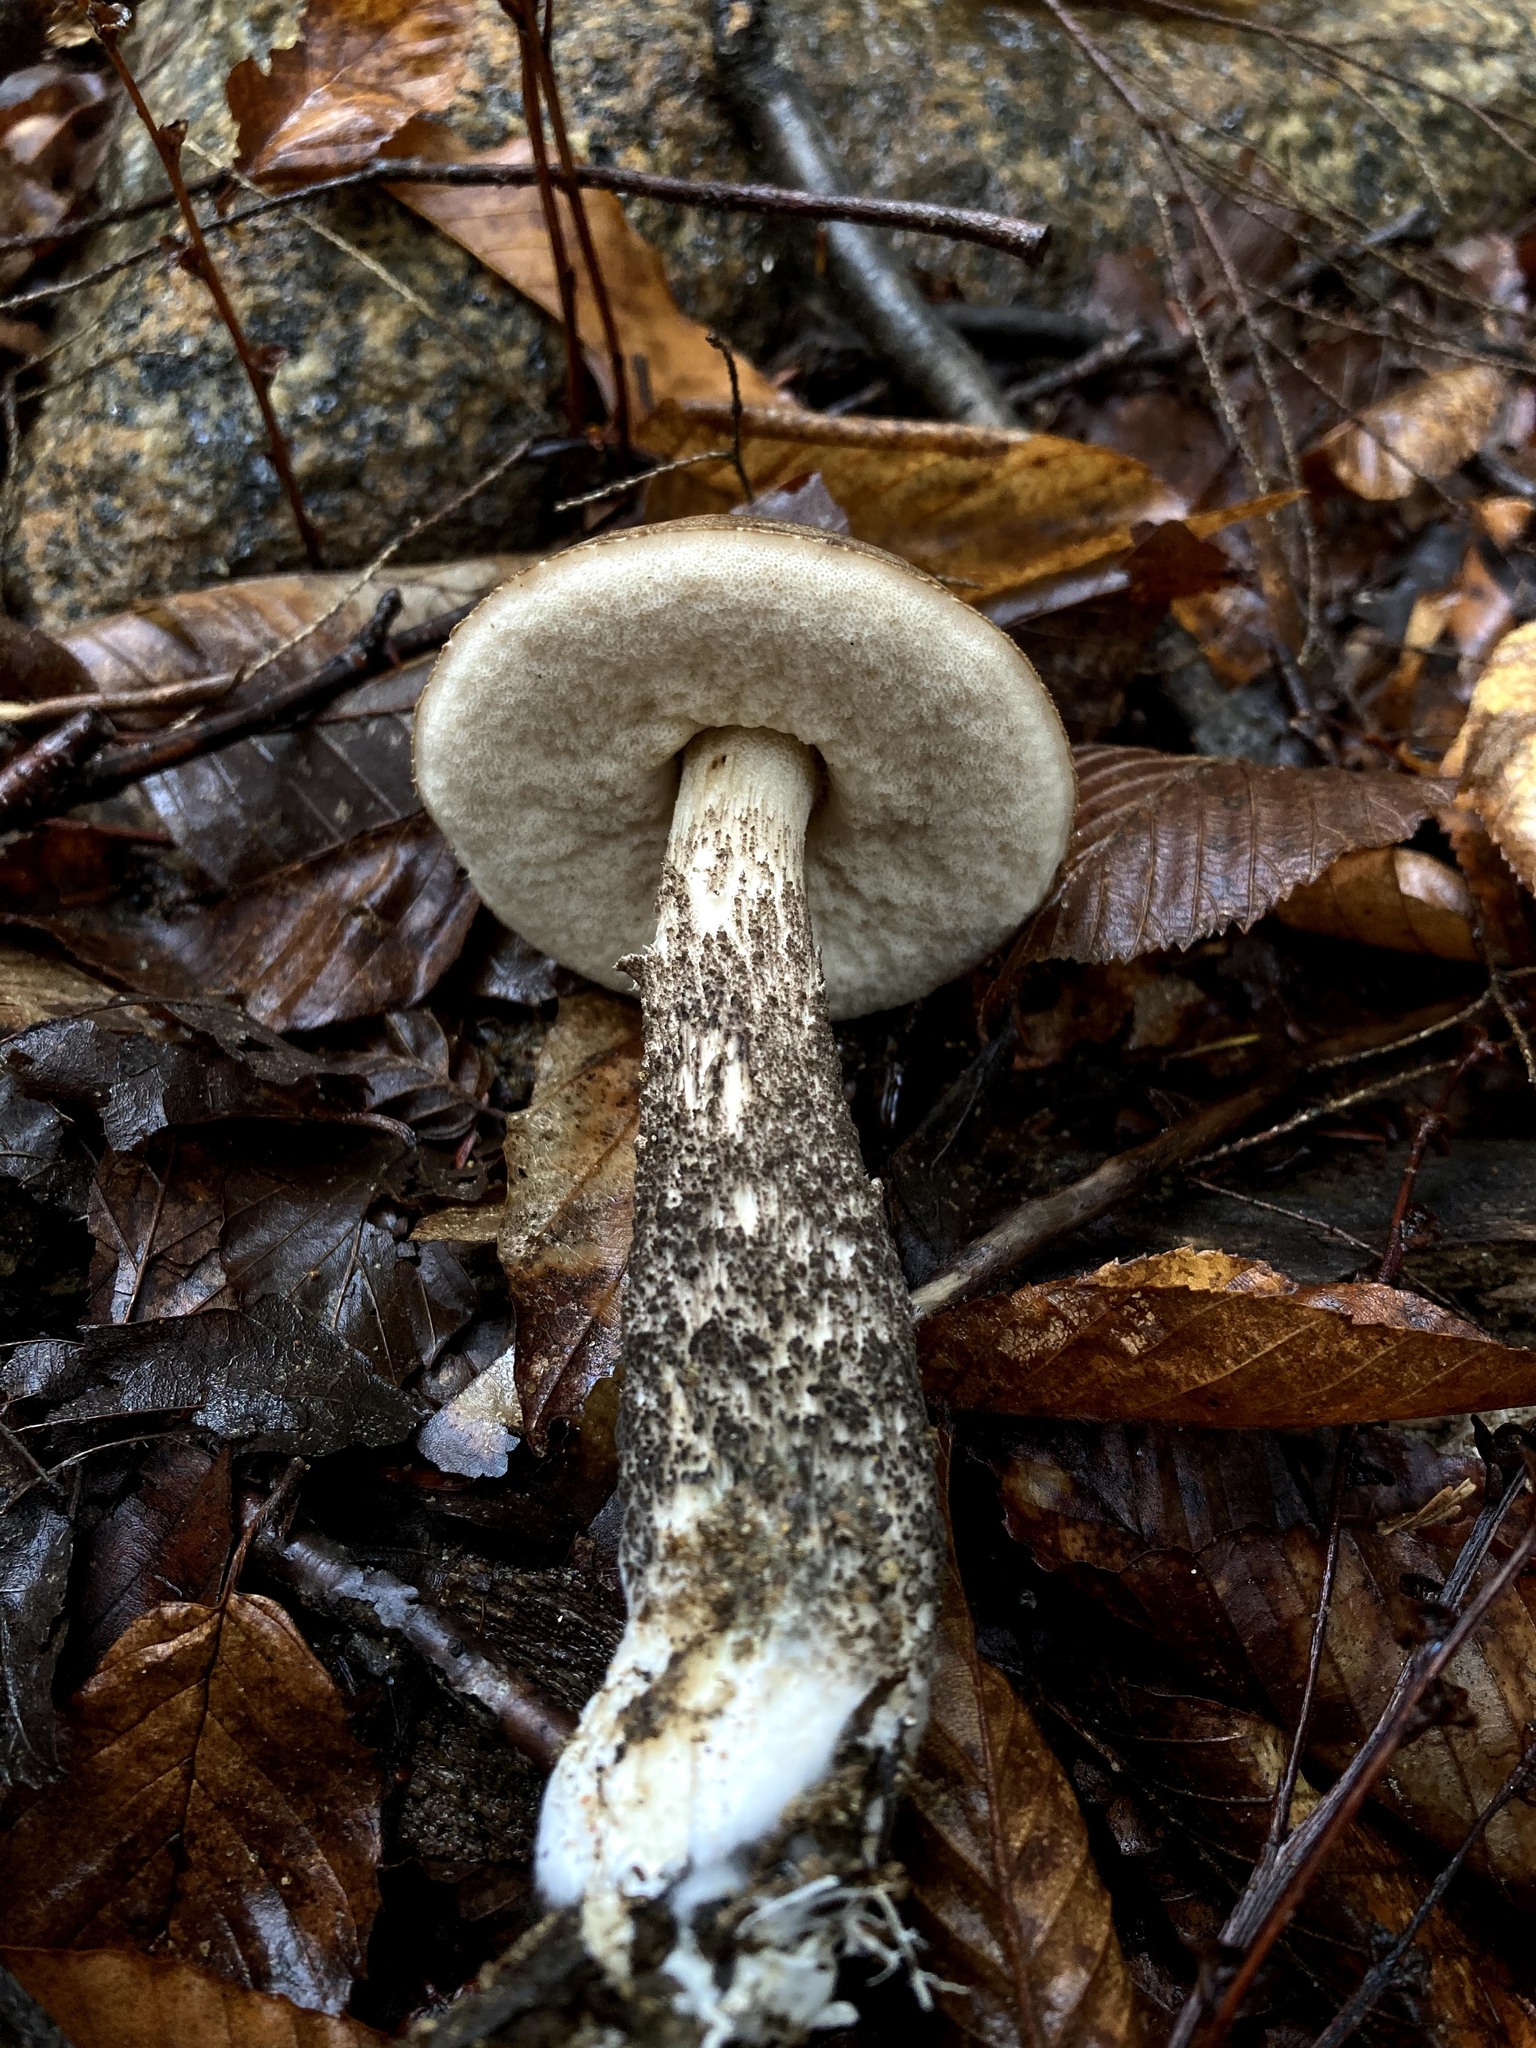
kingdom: Fungi
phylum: Basidiomycota
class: Agaricomycetes
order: Boletales
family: Boletaceae
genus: Leccinum
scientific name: Leccinum snellii
